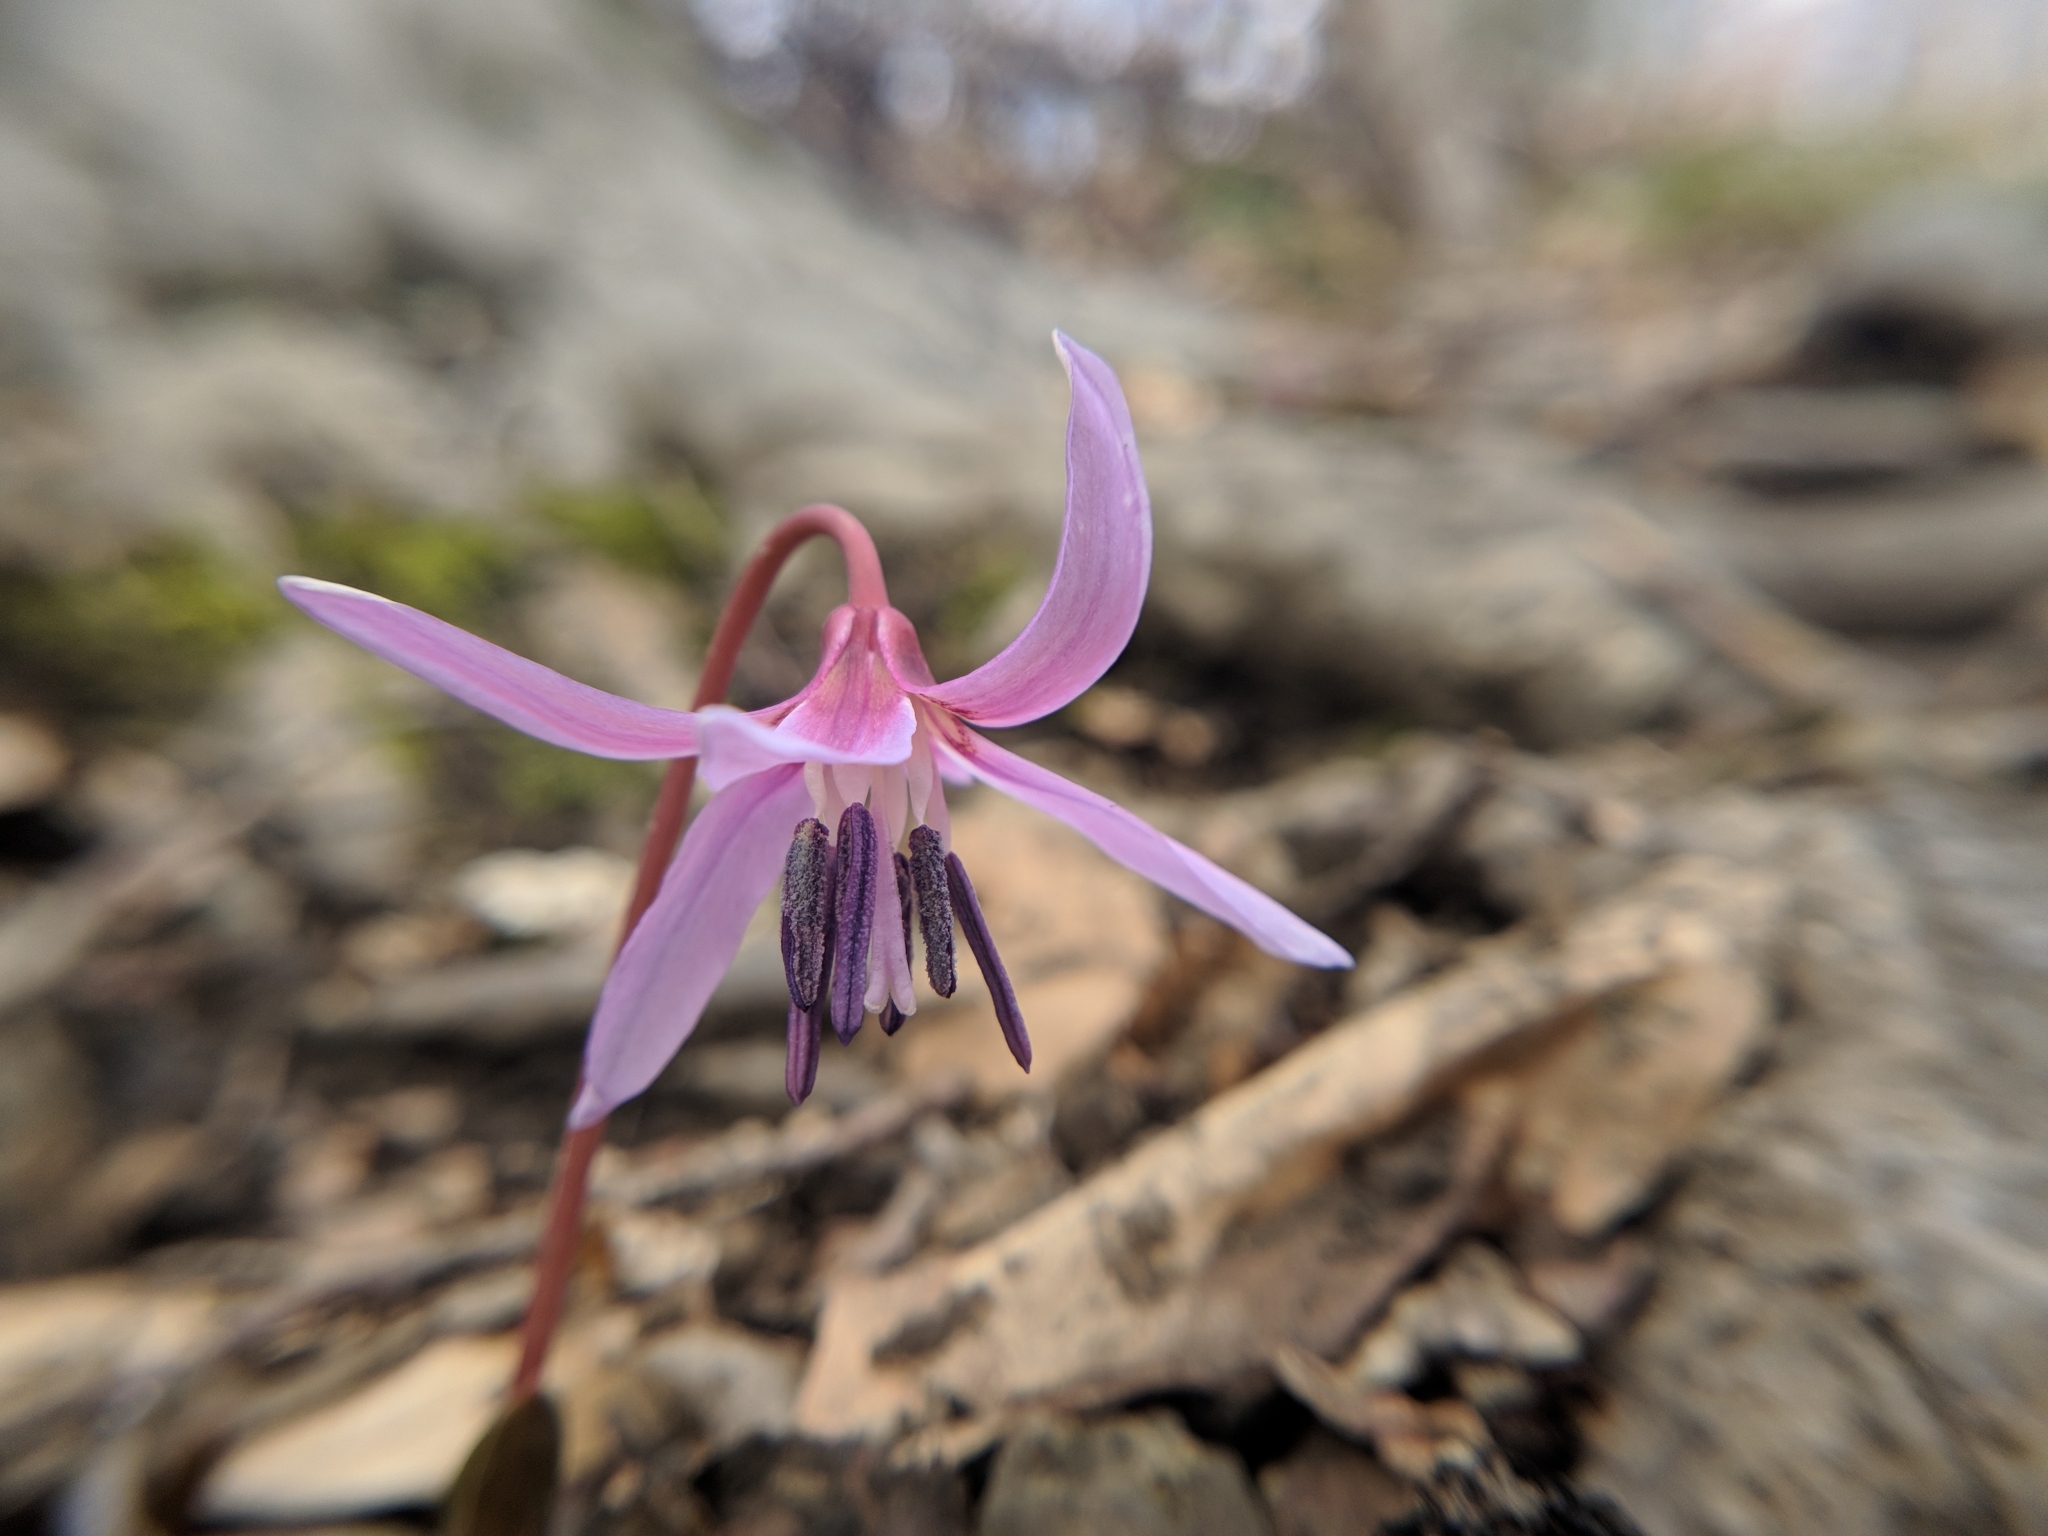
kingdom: Plantae
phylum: Tracheophyta
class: Liliopsida
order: Liliales
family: Liliaceae
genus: Erythronium
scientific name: Erythronium dens-canis
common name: Dog's-tooth-violet
